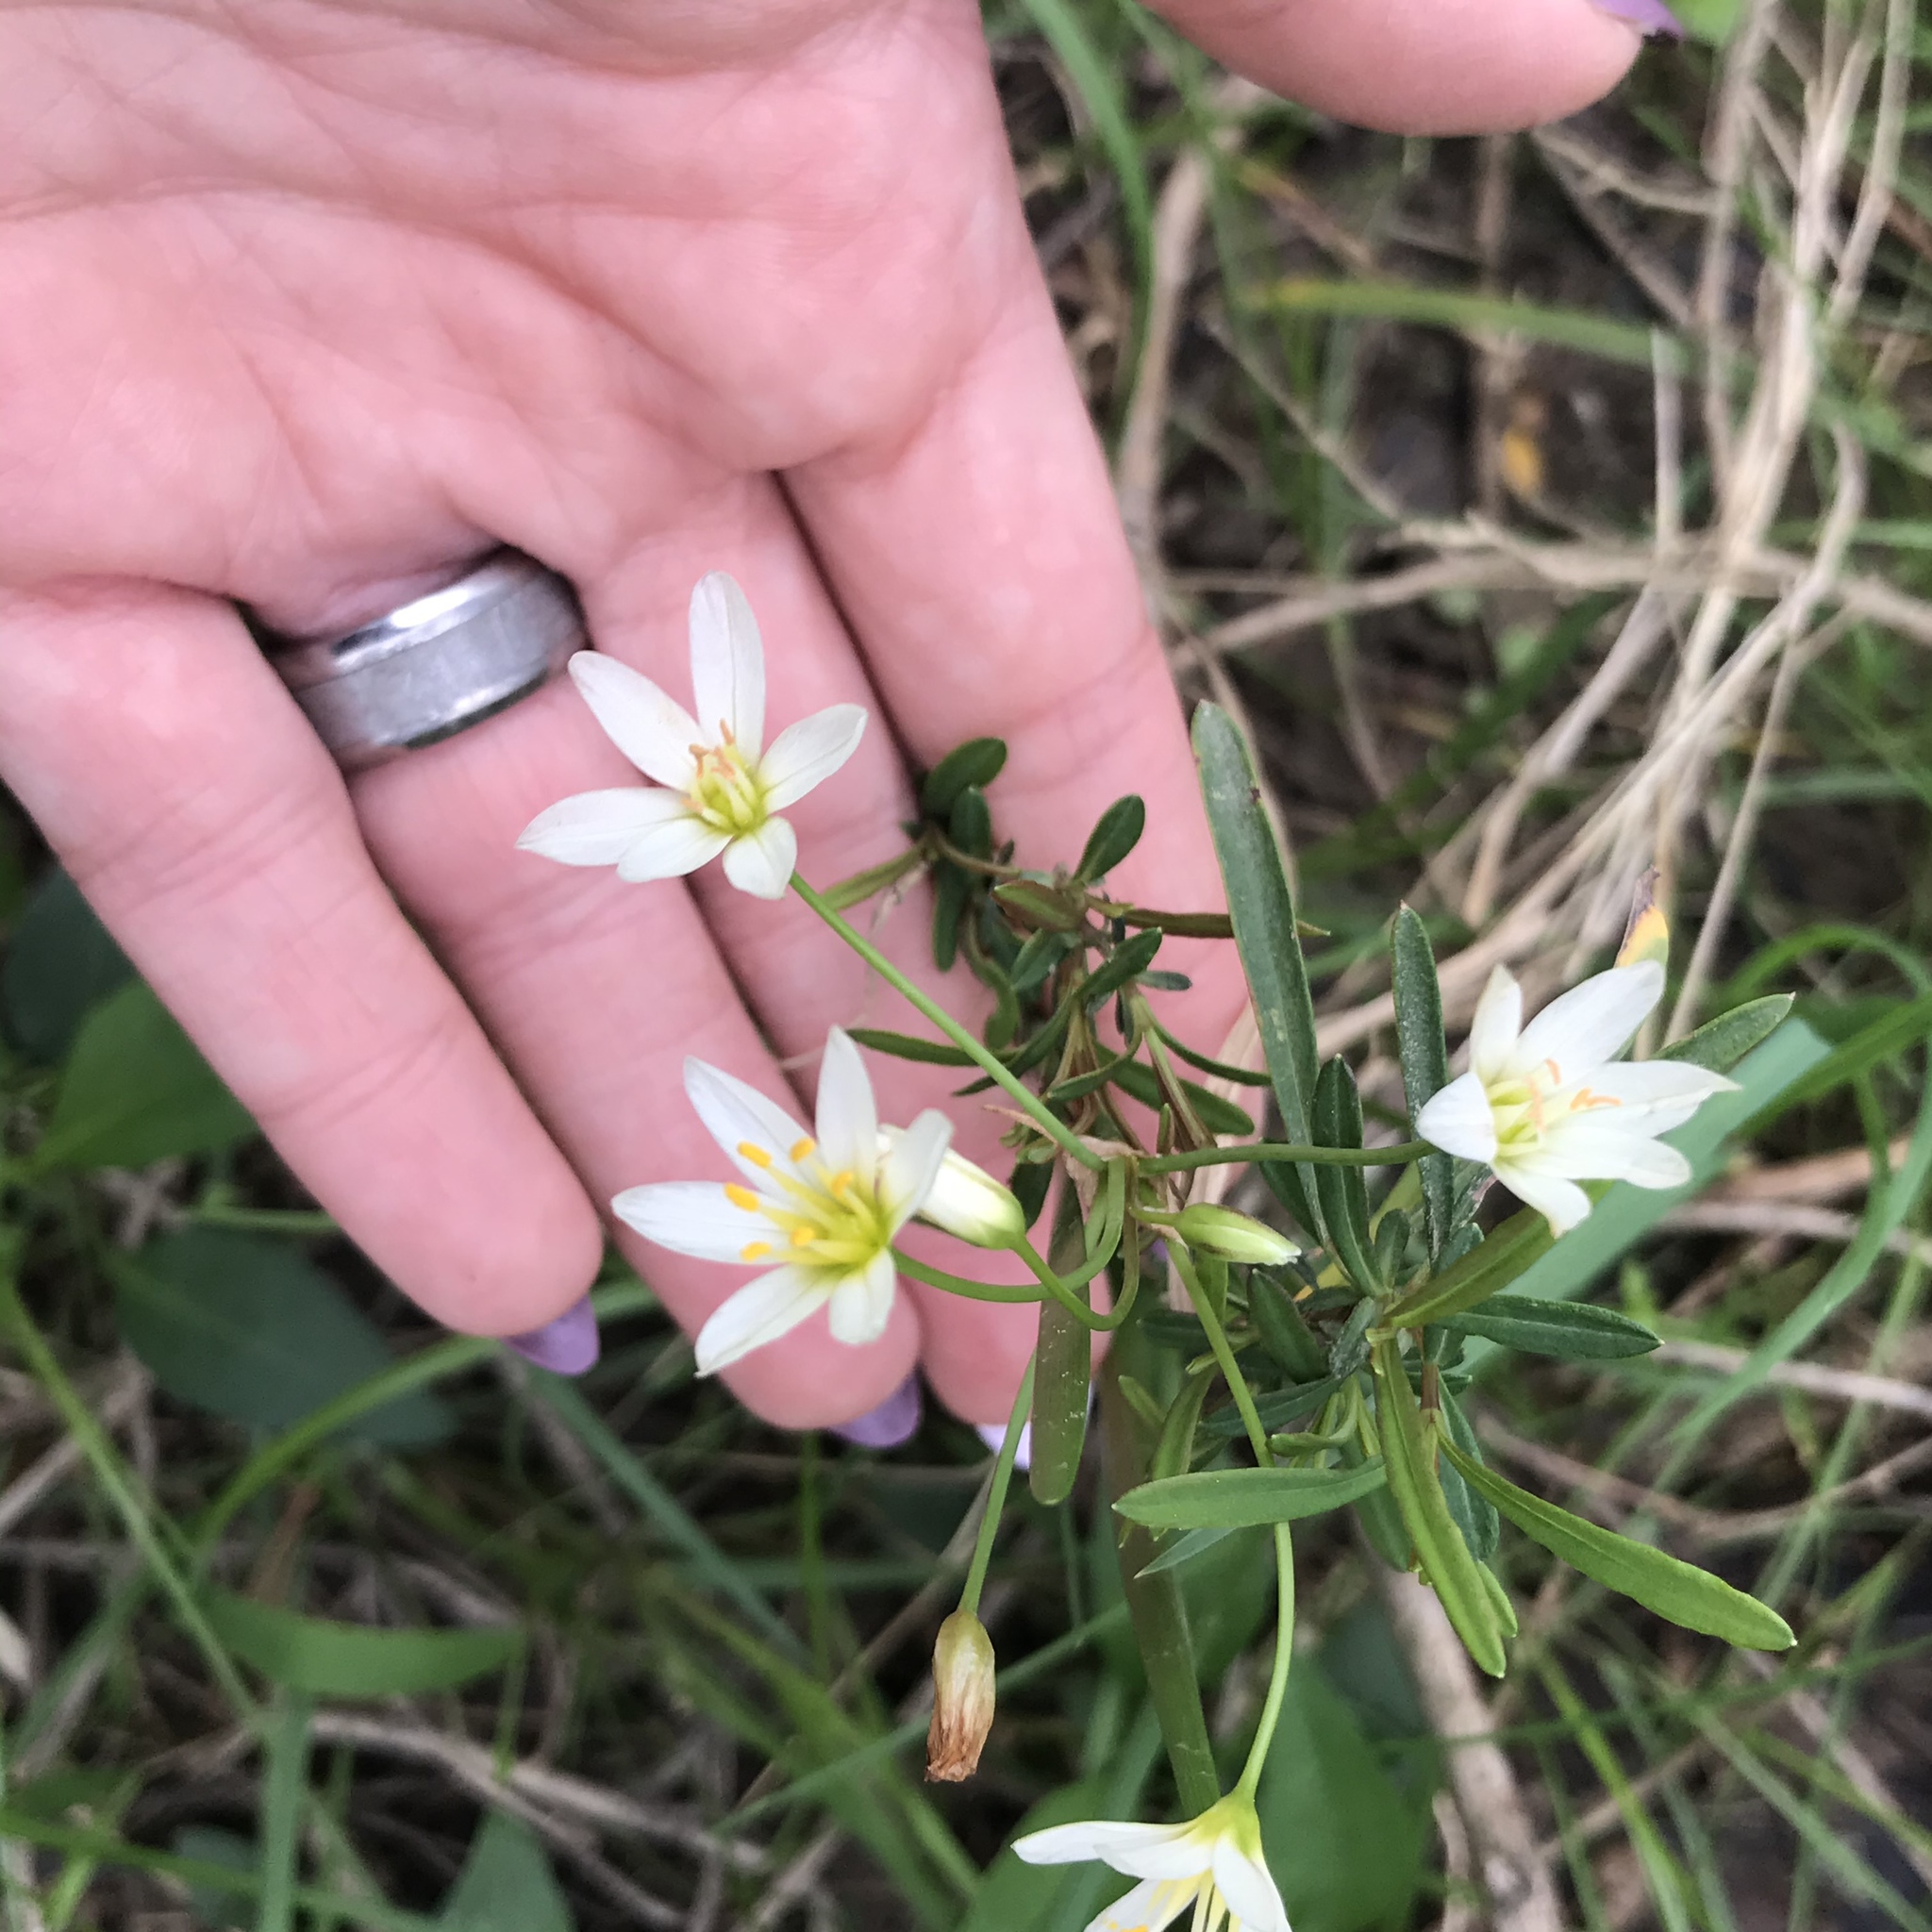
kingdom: Plantae
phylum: Tracheophyta
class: Liliopsida
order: Asparagales
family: Amaryllidaceae
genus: Nothoscordum
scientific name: Nothoscordum bivalve
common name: Crow-poison
